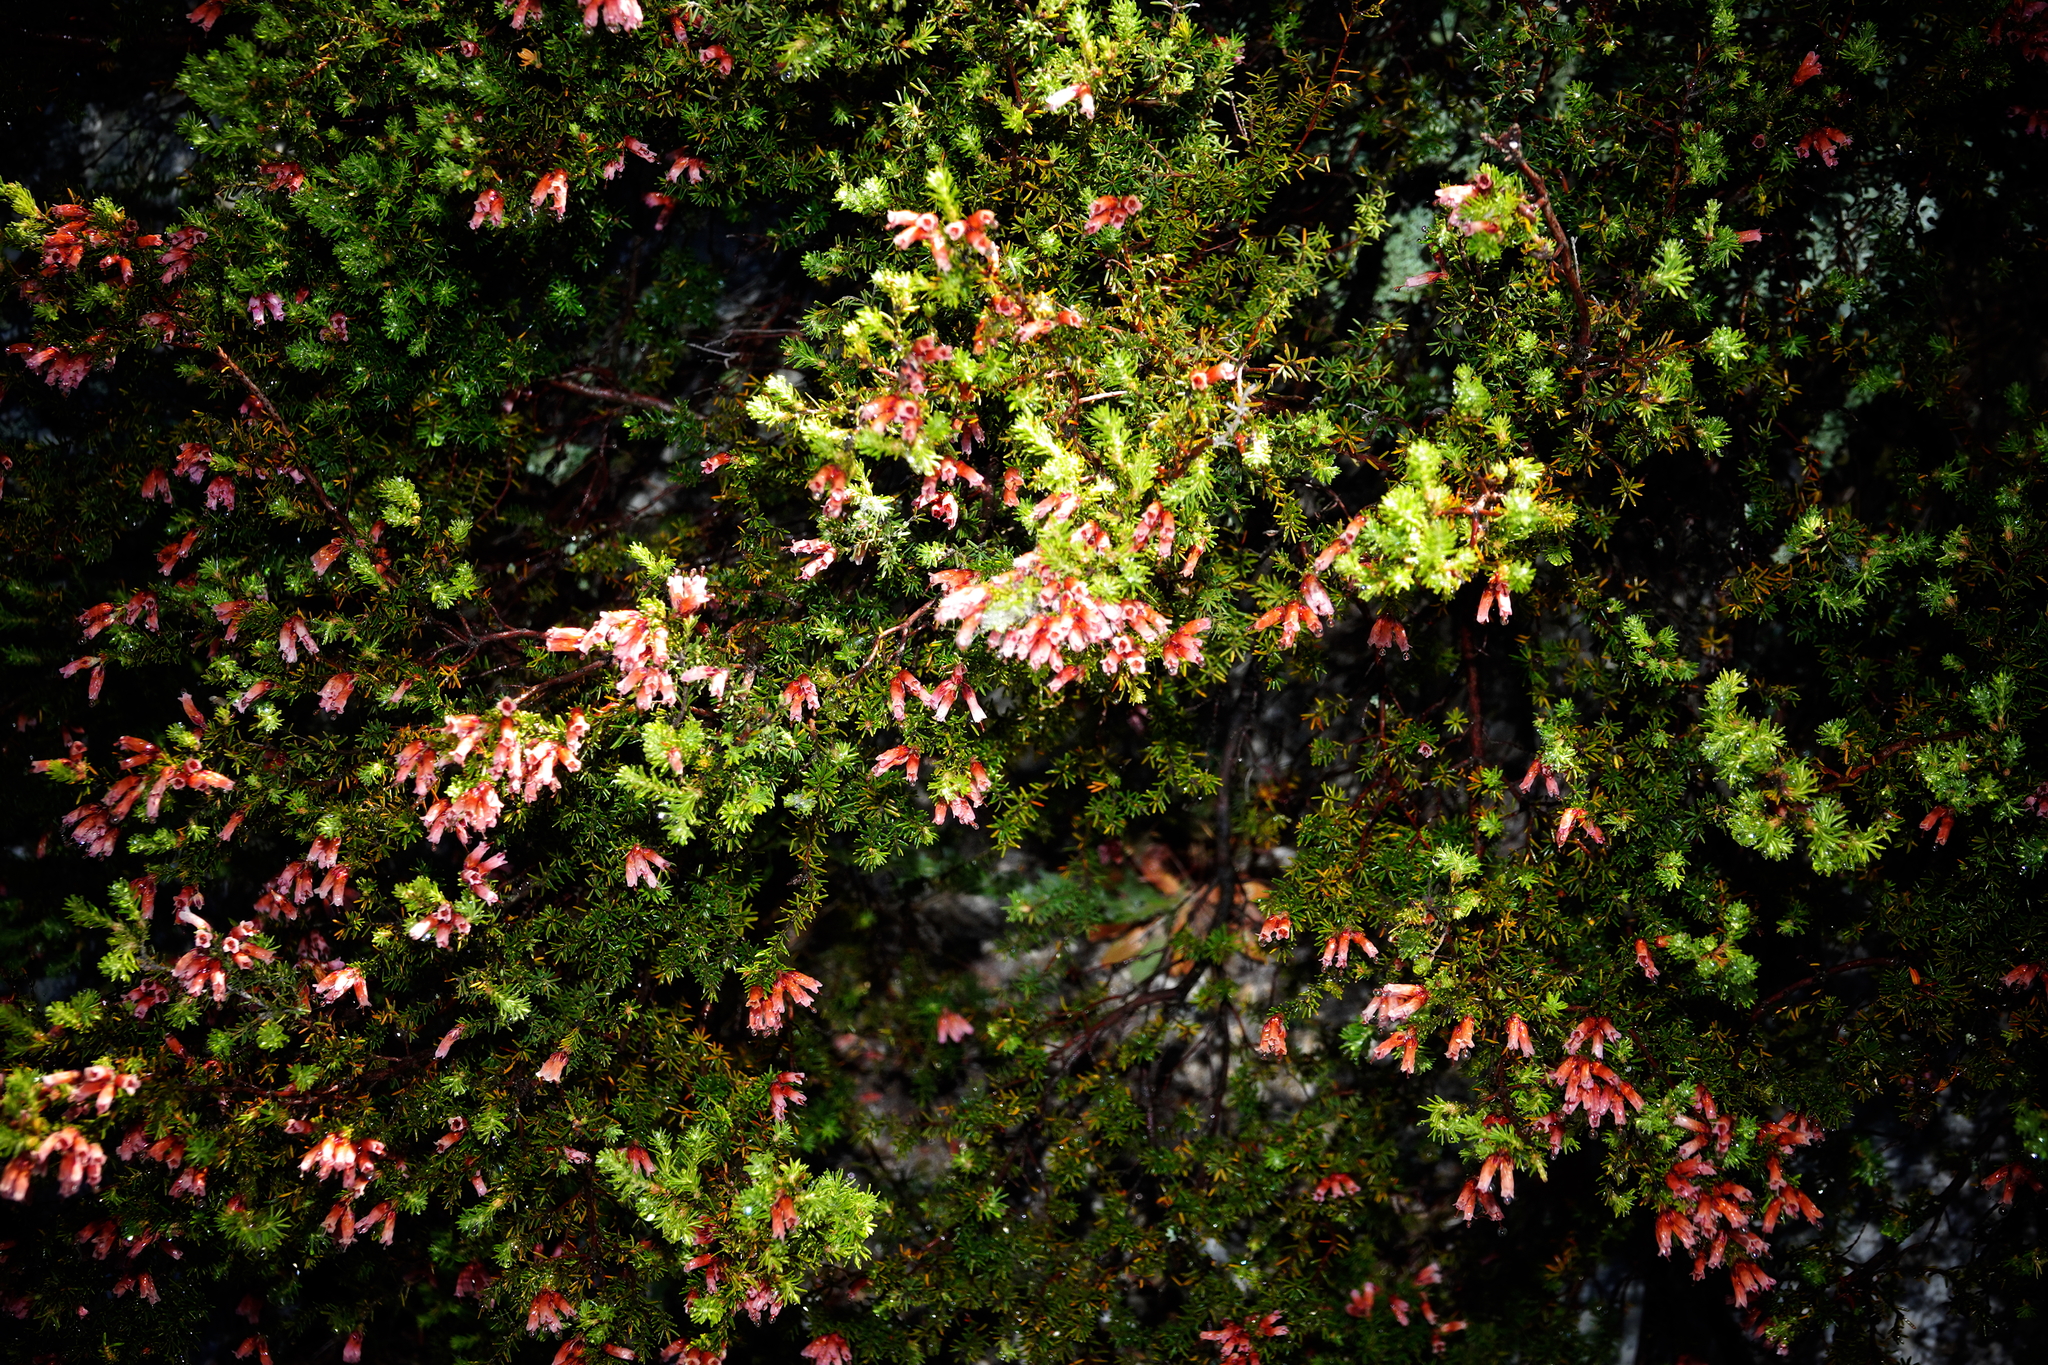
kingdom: Plantae
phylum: Tracheophyta
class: Magnoliopsida
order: Ericales
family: Ericaceae
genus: Erica
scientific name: Erica australis
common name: Spanish heath
